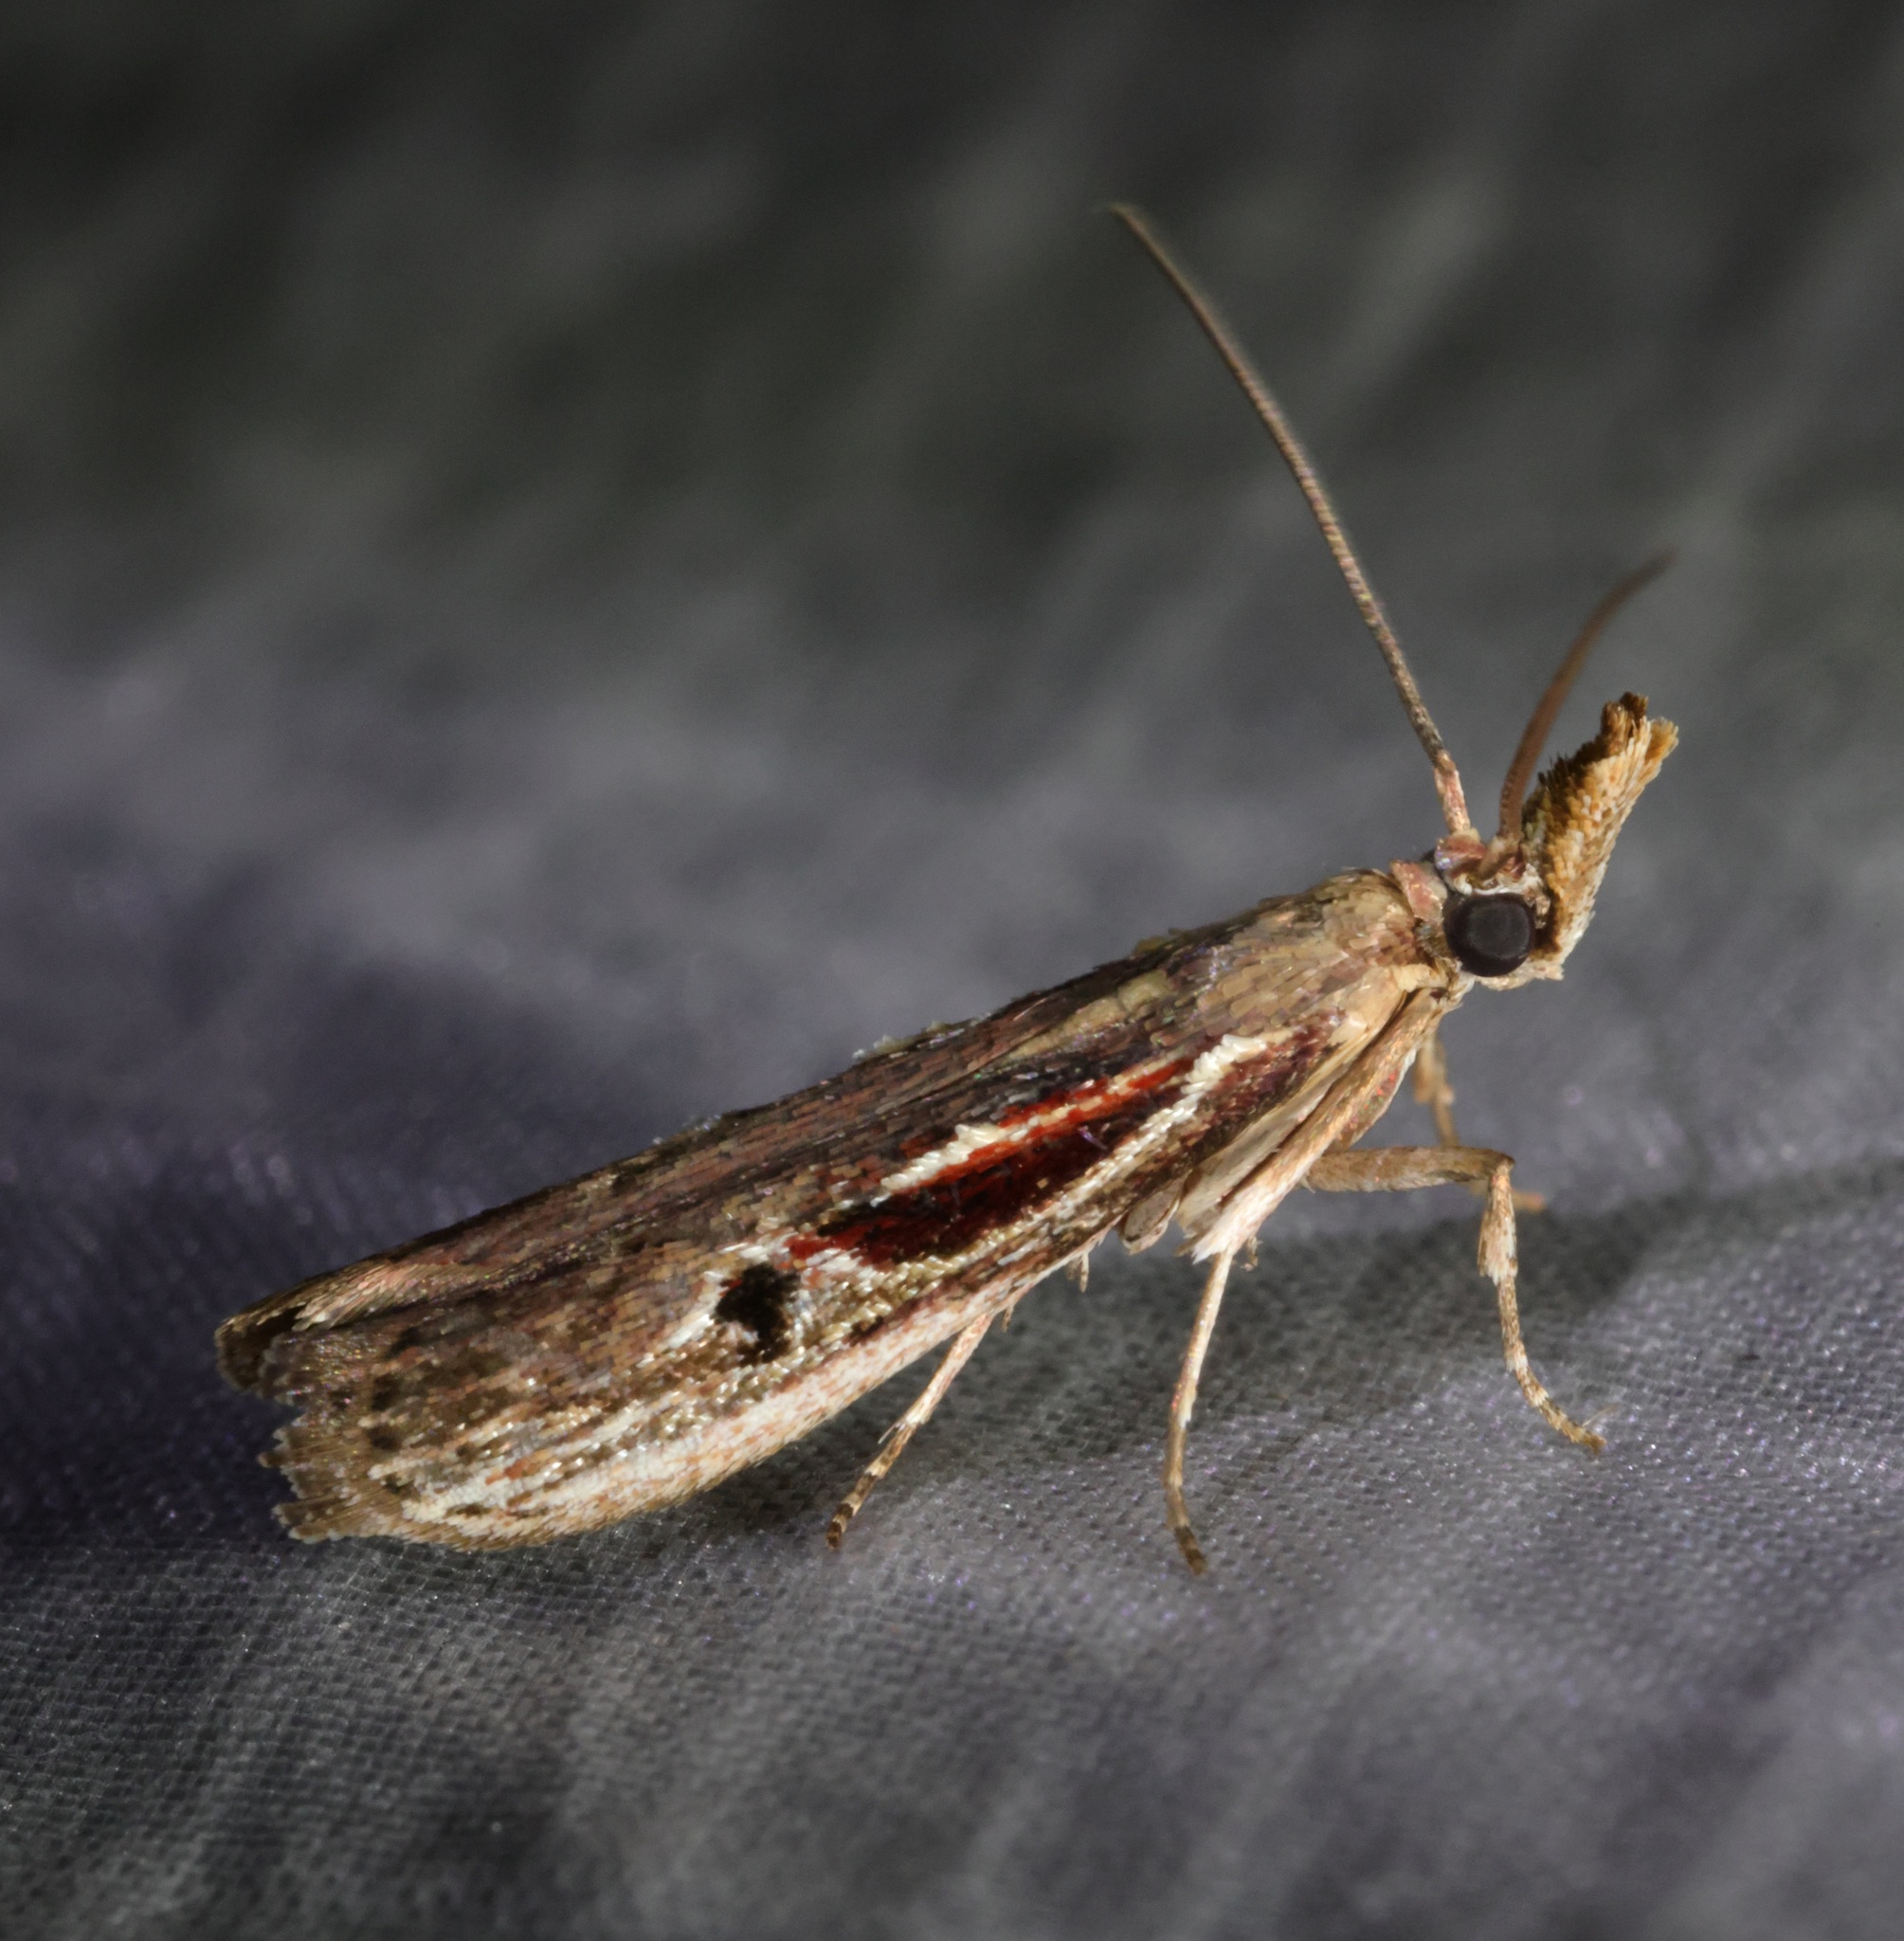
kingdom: Animalia
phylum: Arthropoda
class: Insecta
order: Lepidoptera
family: Pyralidae
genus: Pseudodavara
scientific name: Pseudodavara haemaphoralis
